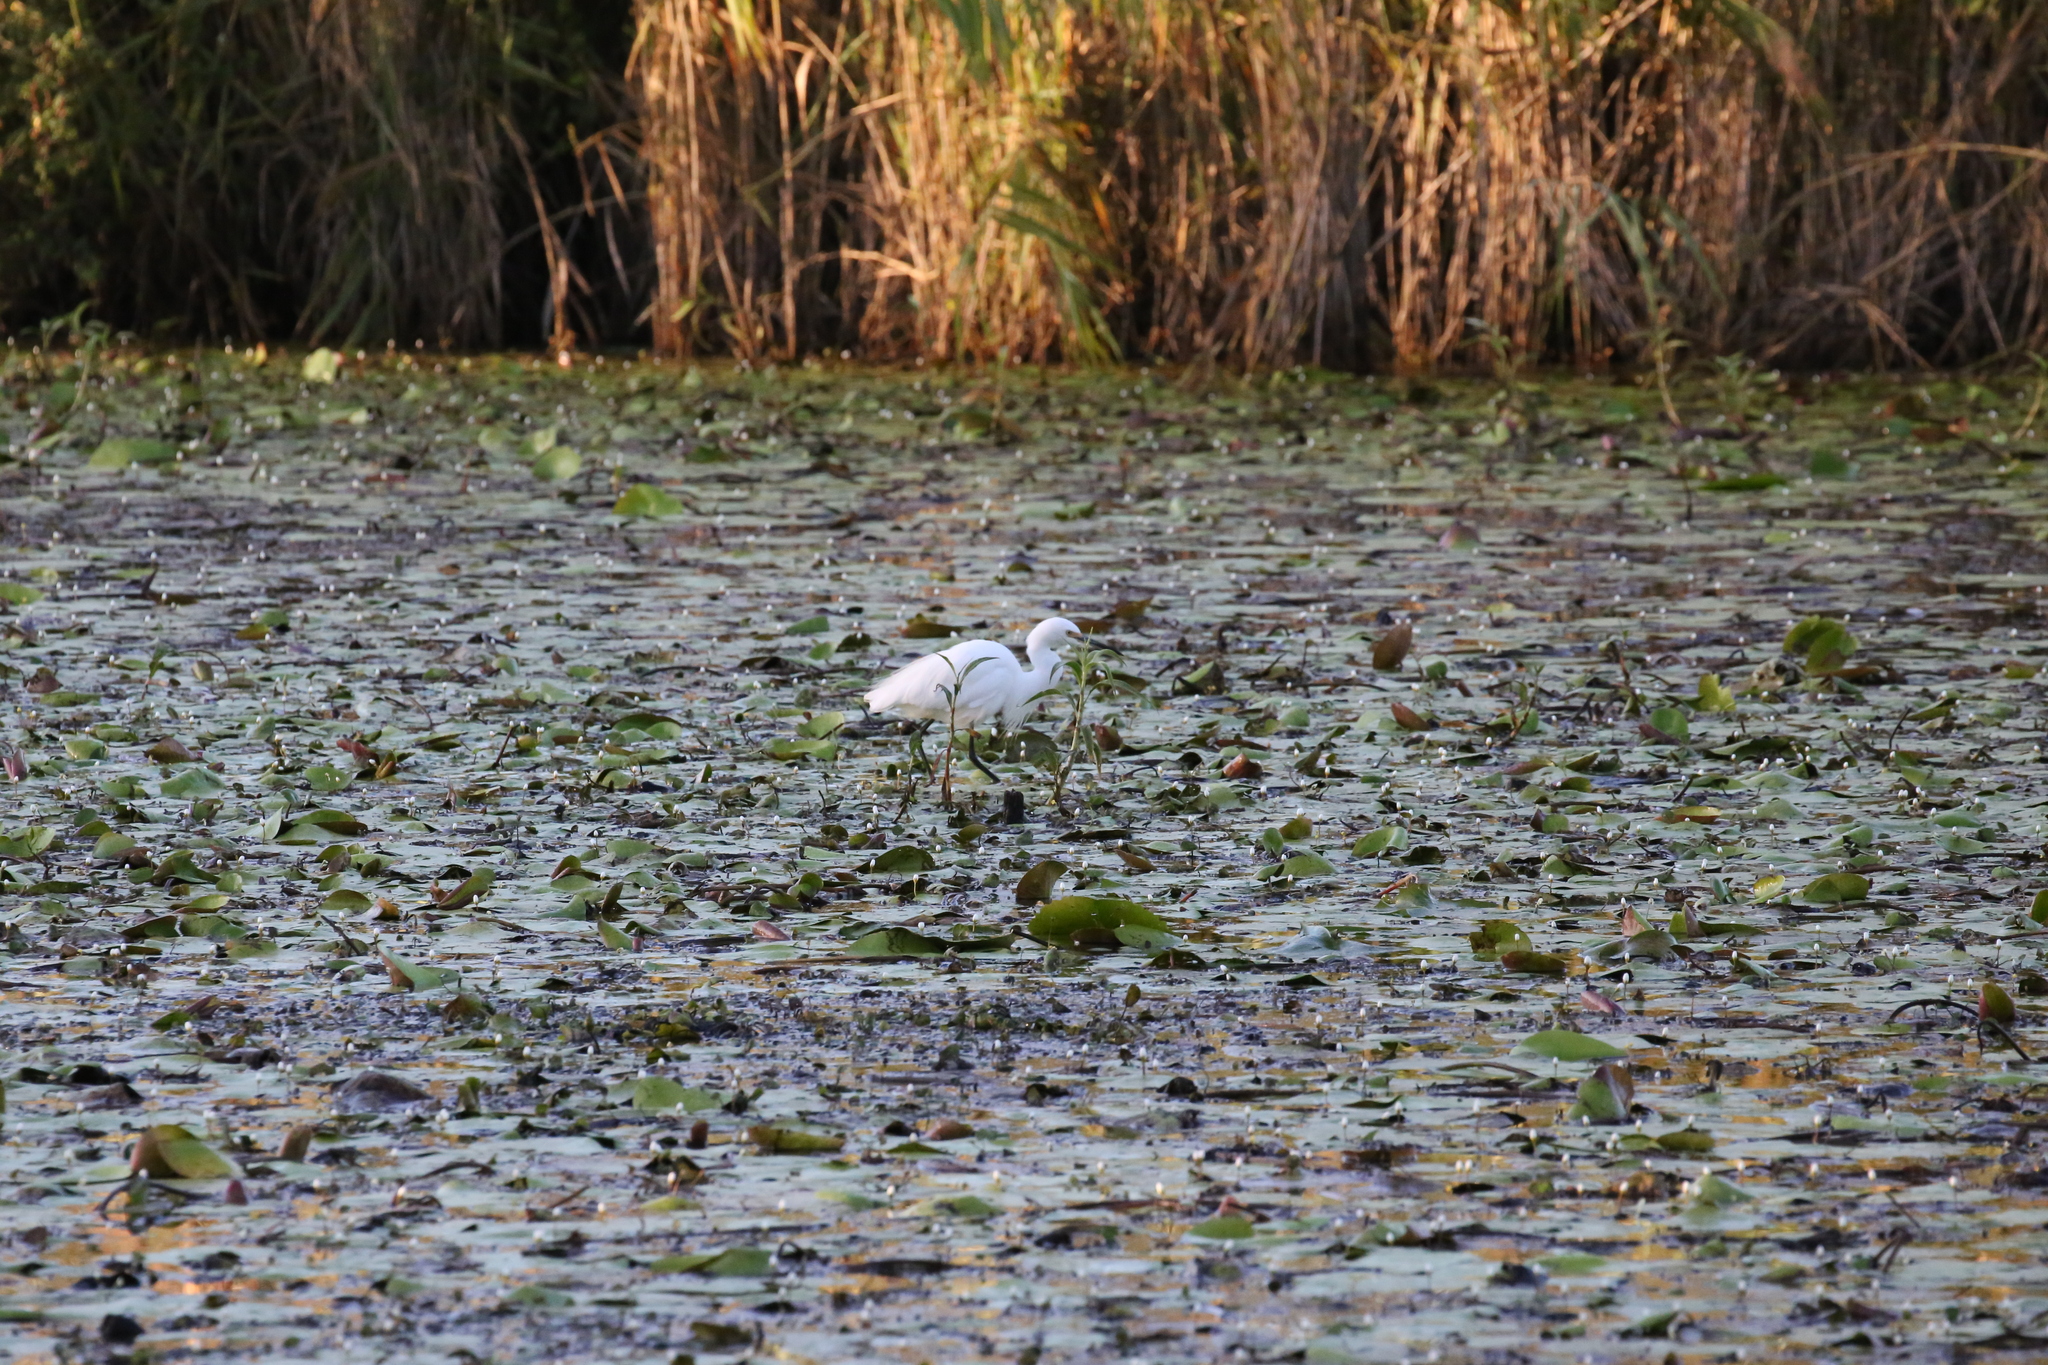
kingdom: Animalia
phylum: Chordata
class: Aves
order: Pelecaniformes
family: Ardeidae
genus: Egretta
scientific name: Egretta garzetta
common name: Little egret
